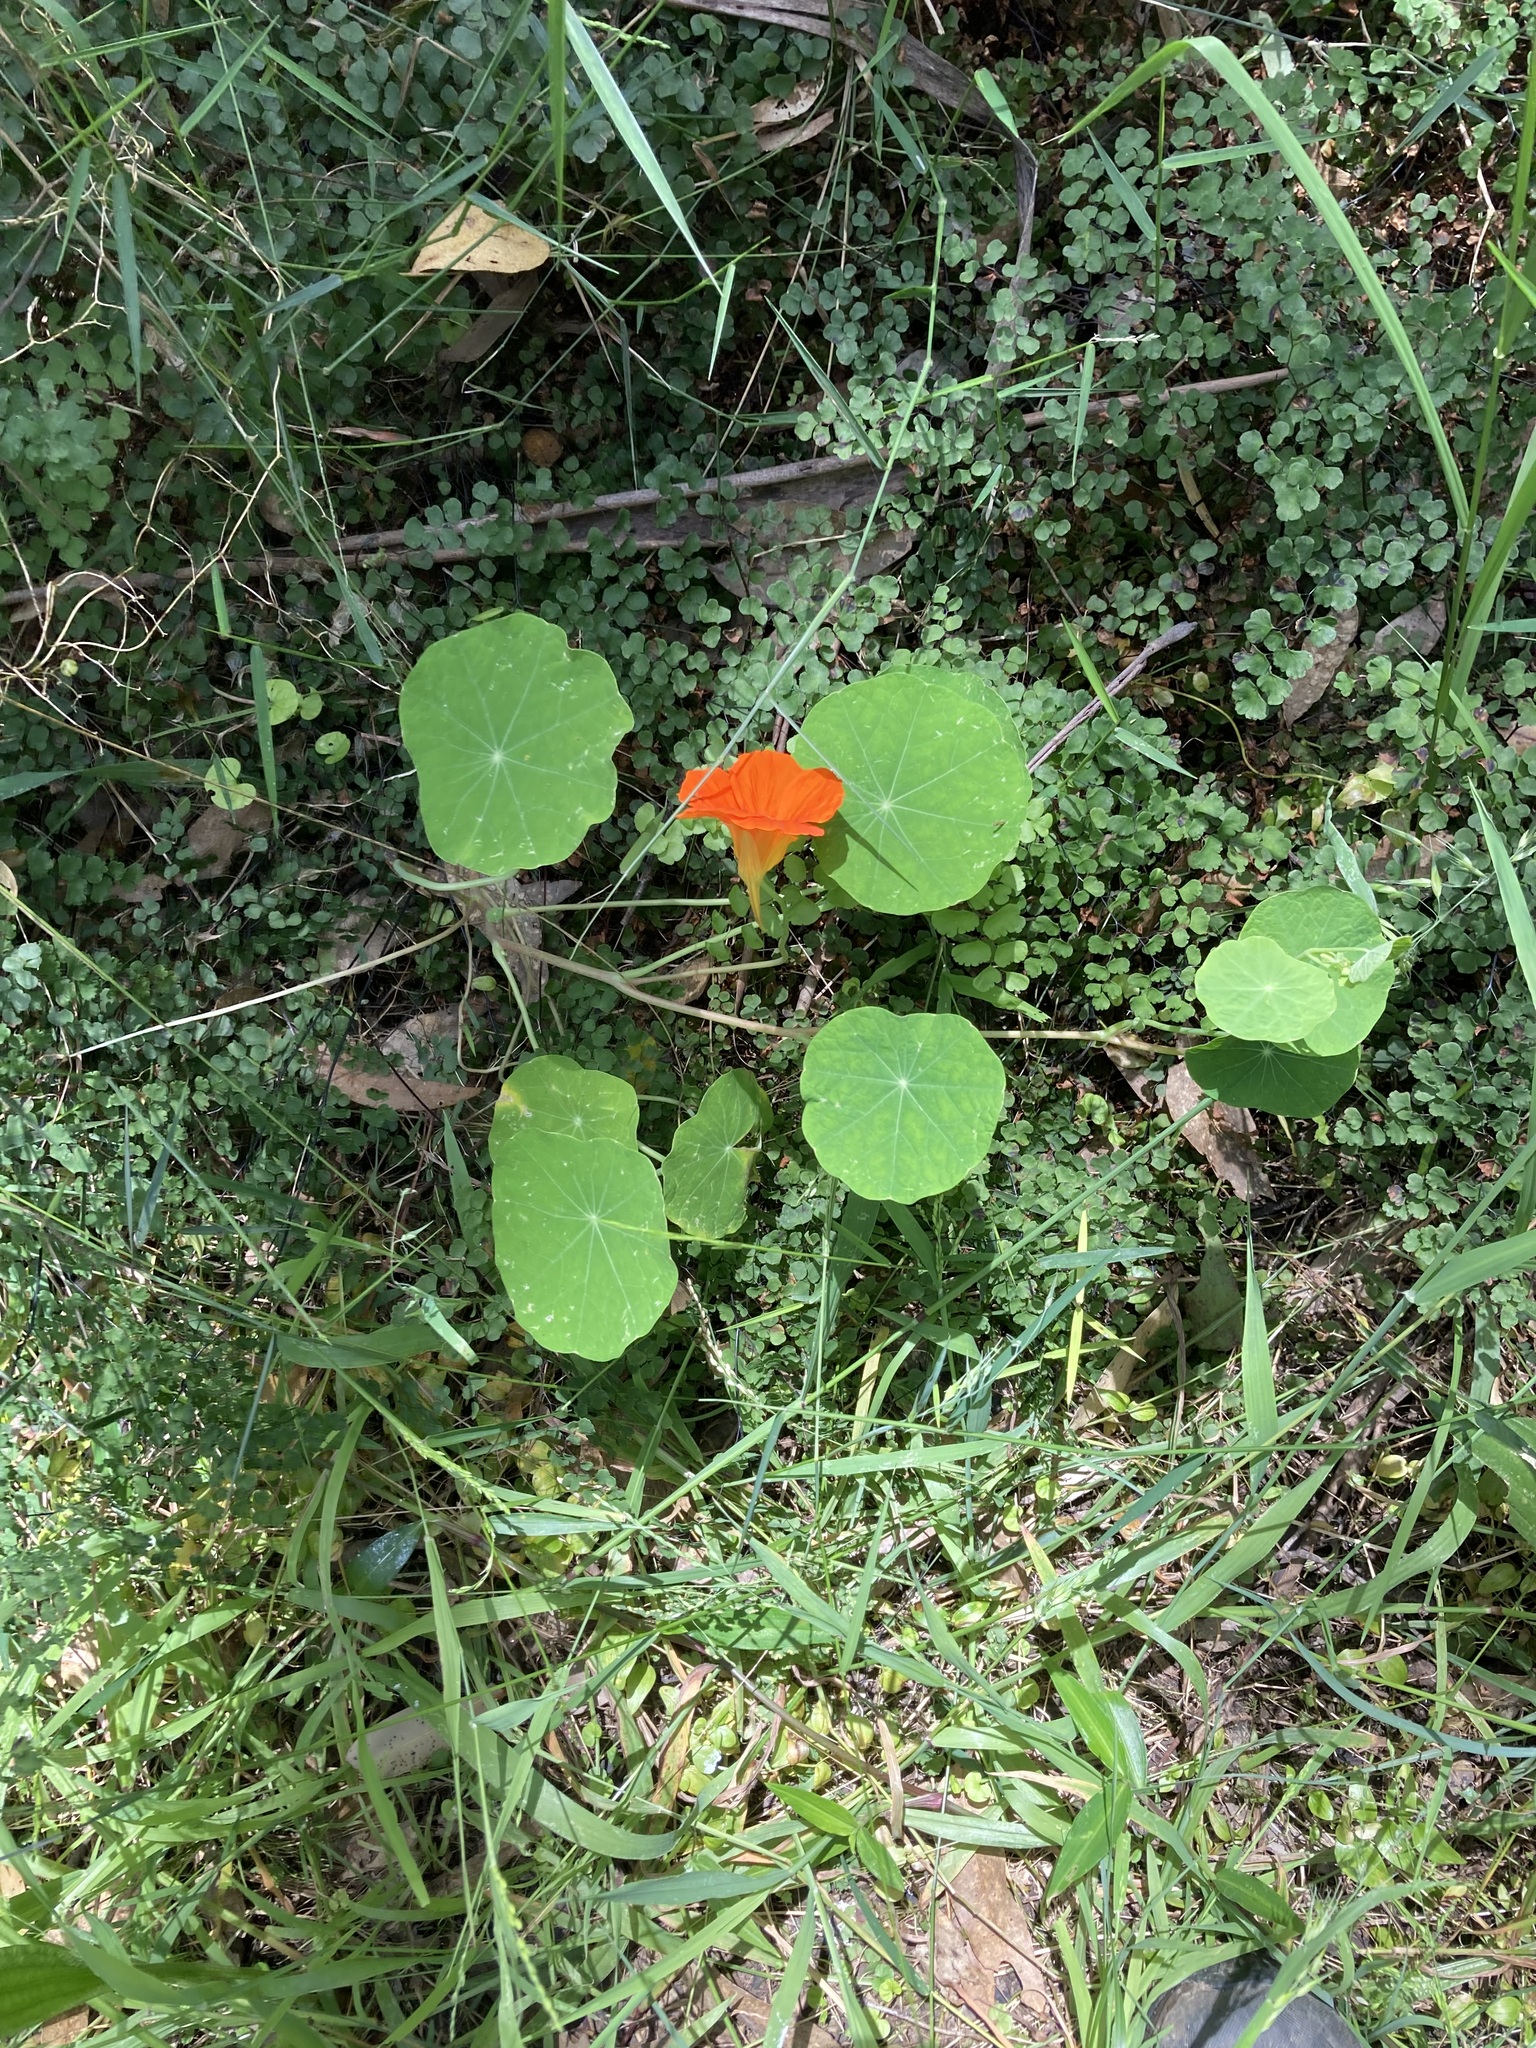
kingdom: Plantae
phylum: Tracheophyta
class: Magnoliopsida
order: Brassicales
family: Tropaeolaceae
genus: Tropaeolum
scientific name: Tropaeolum majus
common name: Nasturtium
